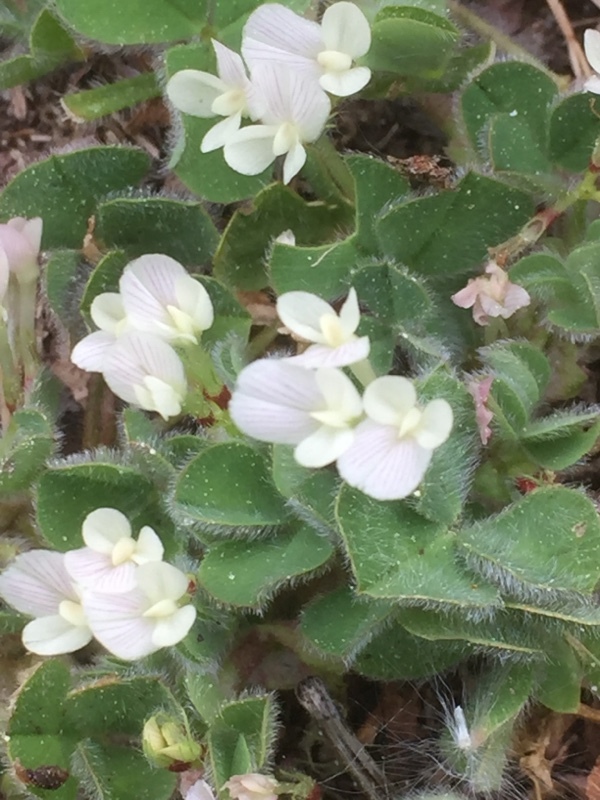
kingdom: Plantae
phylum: Tracheophyta
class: Magnoliopsida
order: Fabales
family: Fabaceae
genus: Trifolium
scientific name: Trifolium subterraneum
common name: Subterranean clover
